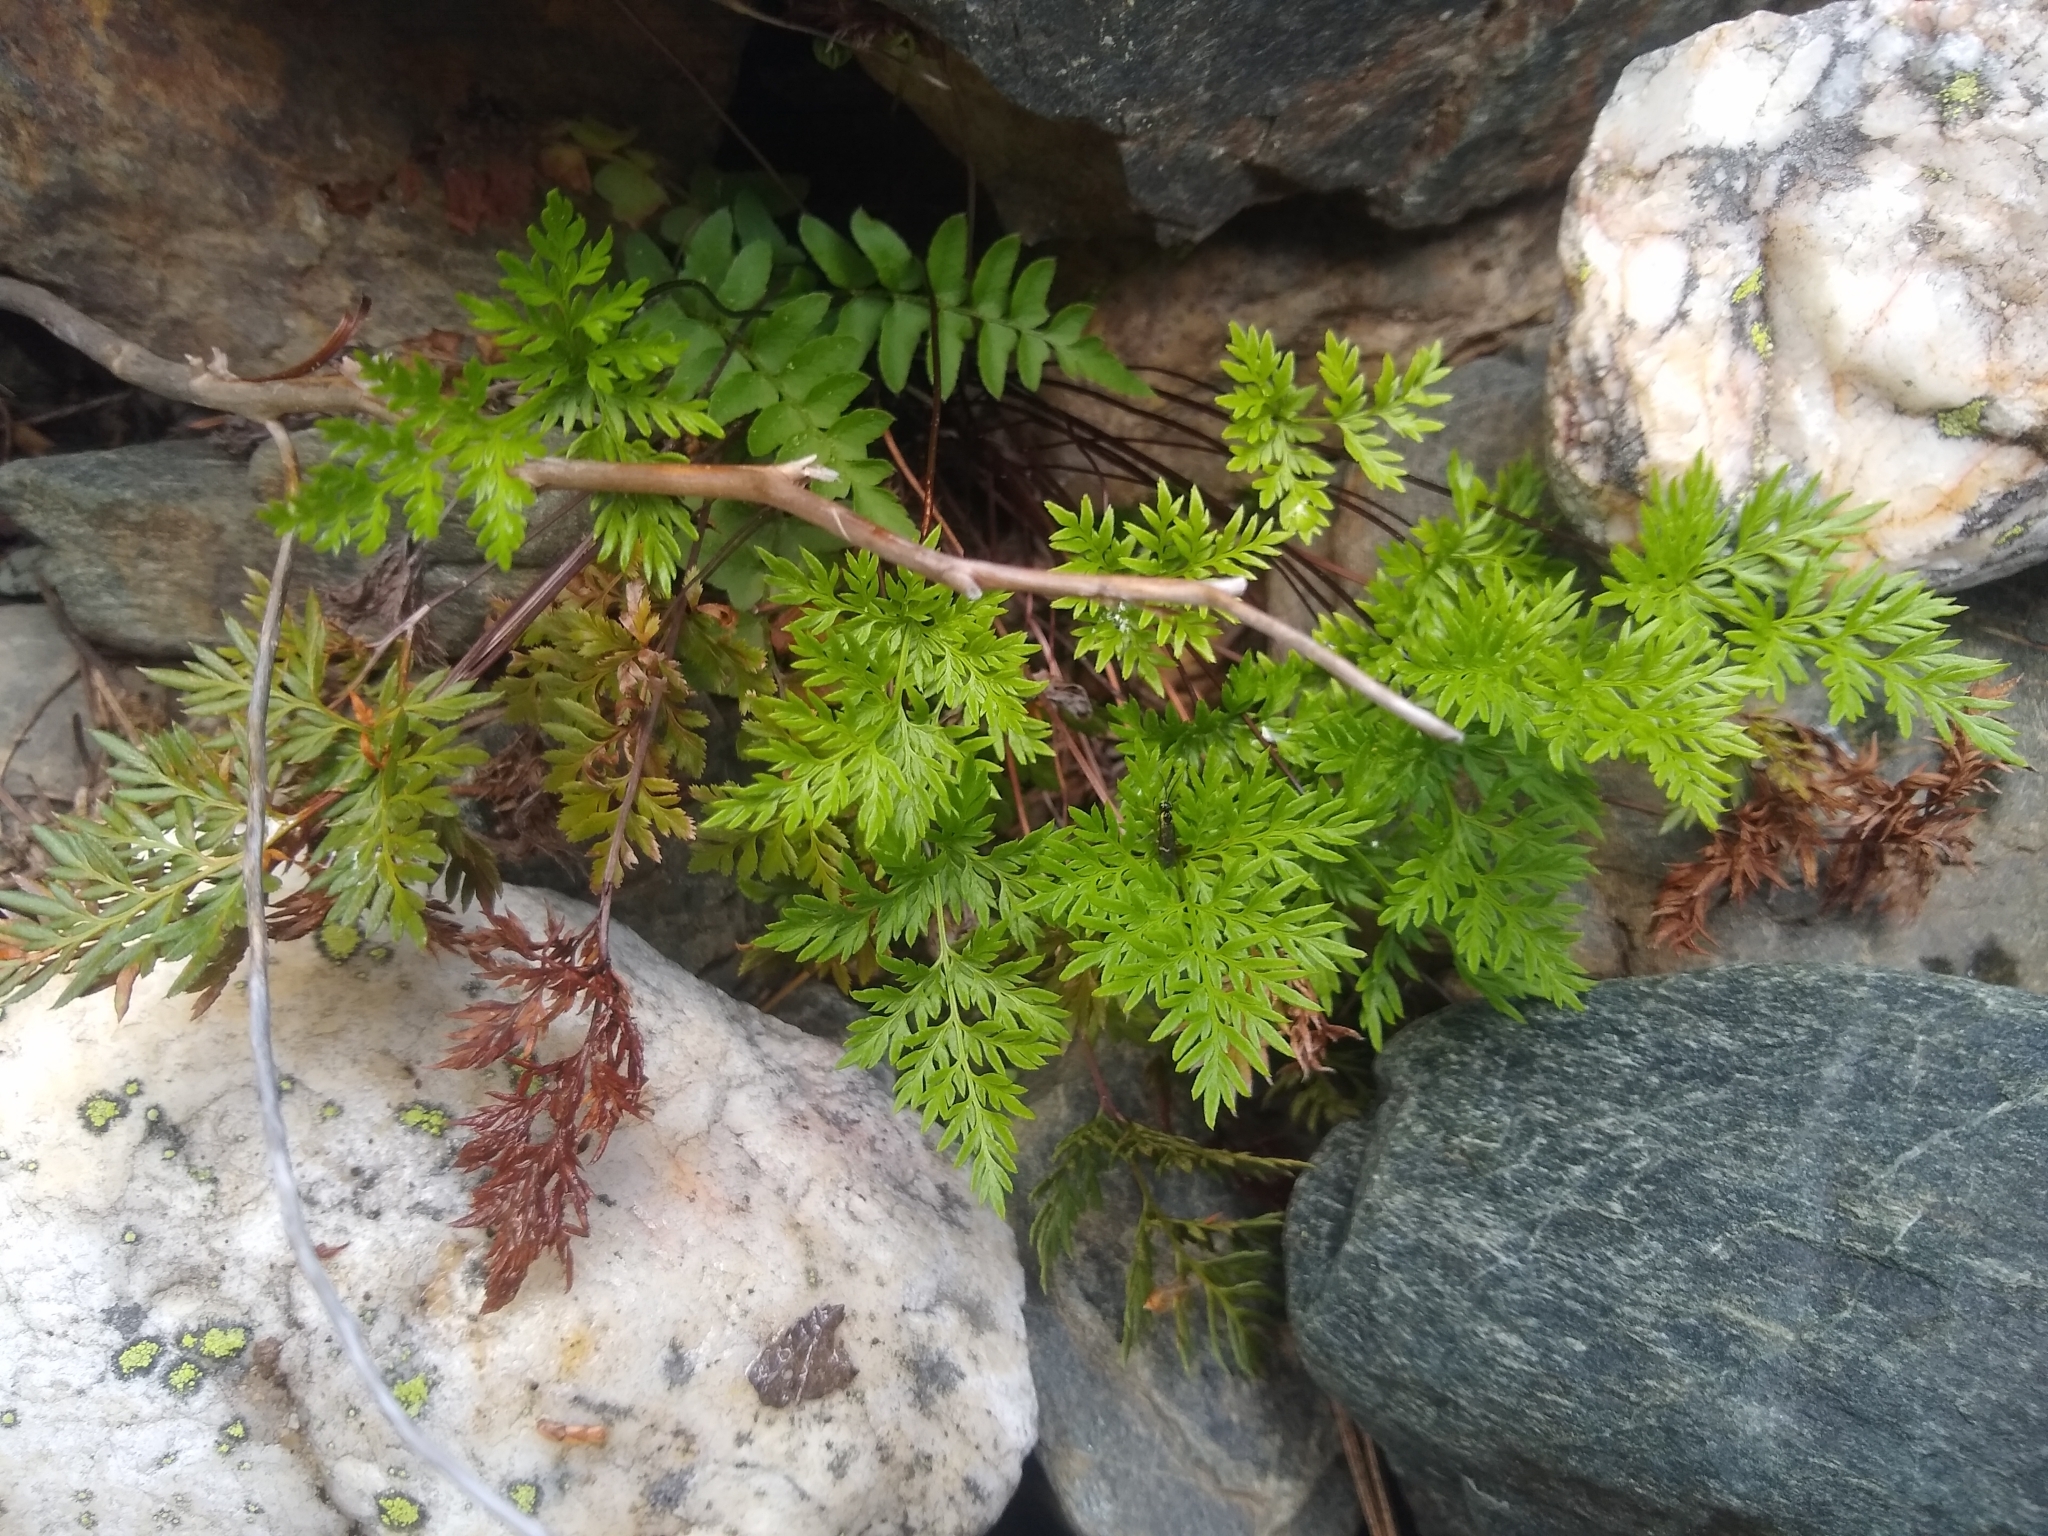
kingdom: Plantae
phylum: Tracheophyta
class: Polypodiopsida
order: Polypodiales
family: Pteridaceae
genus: Aspidotis
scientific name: Aspidotis densa
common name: Indian's dream
